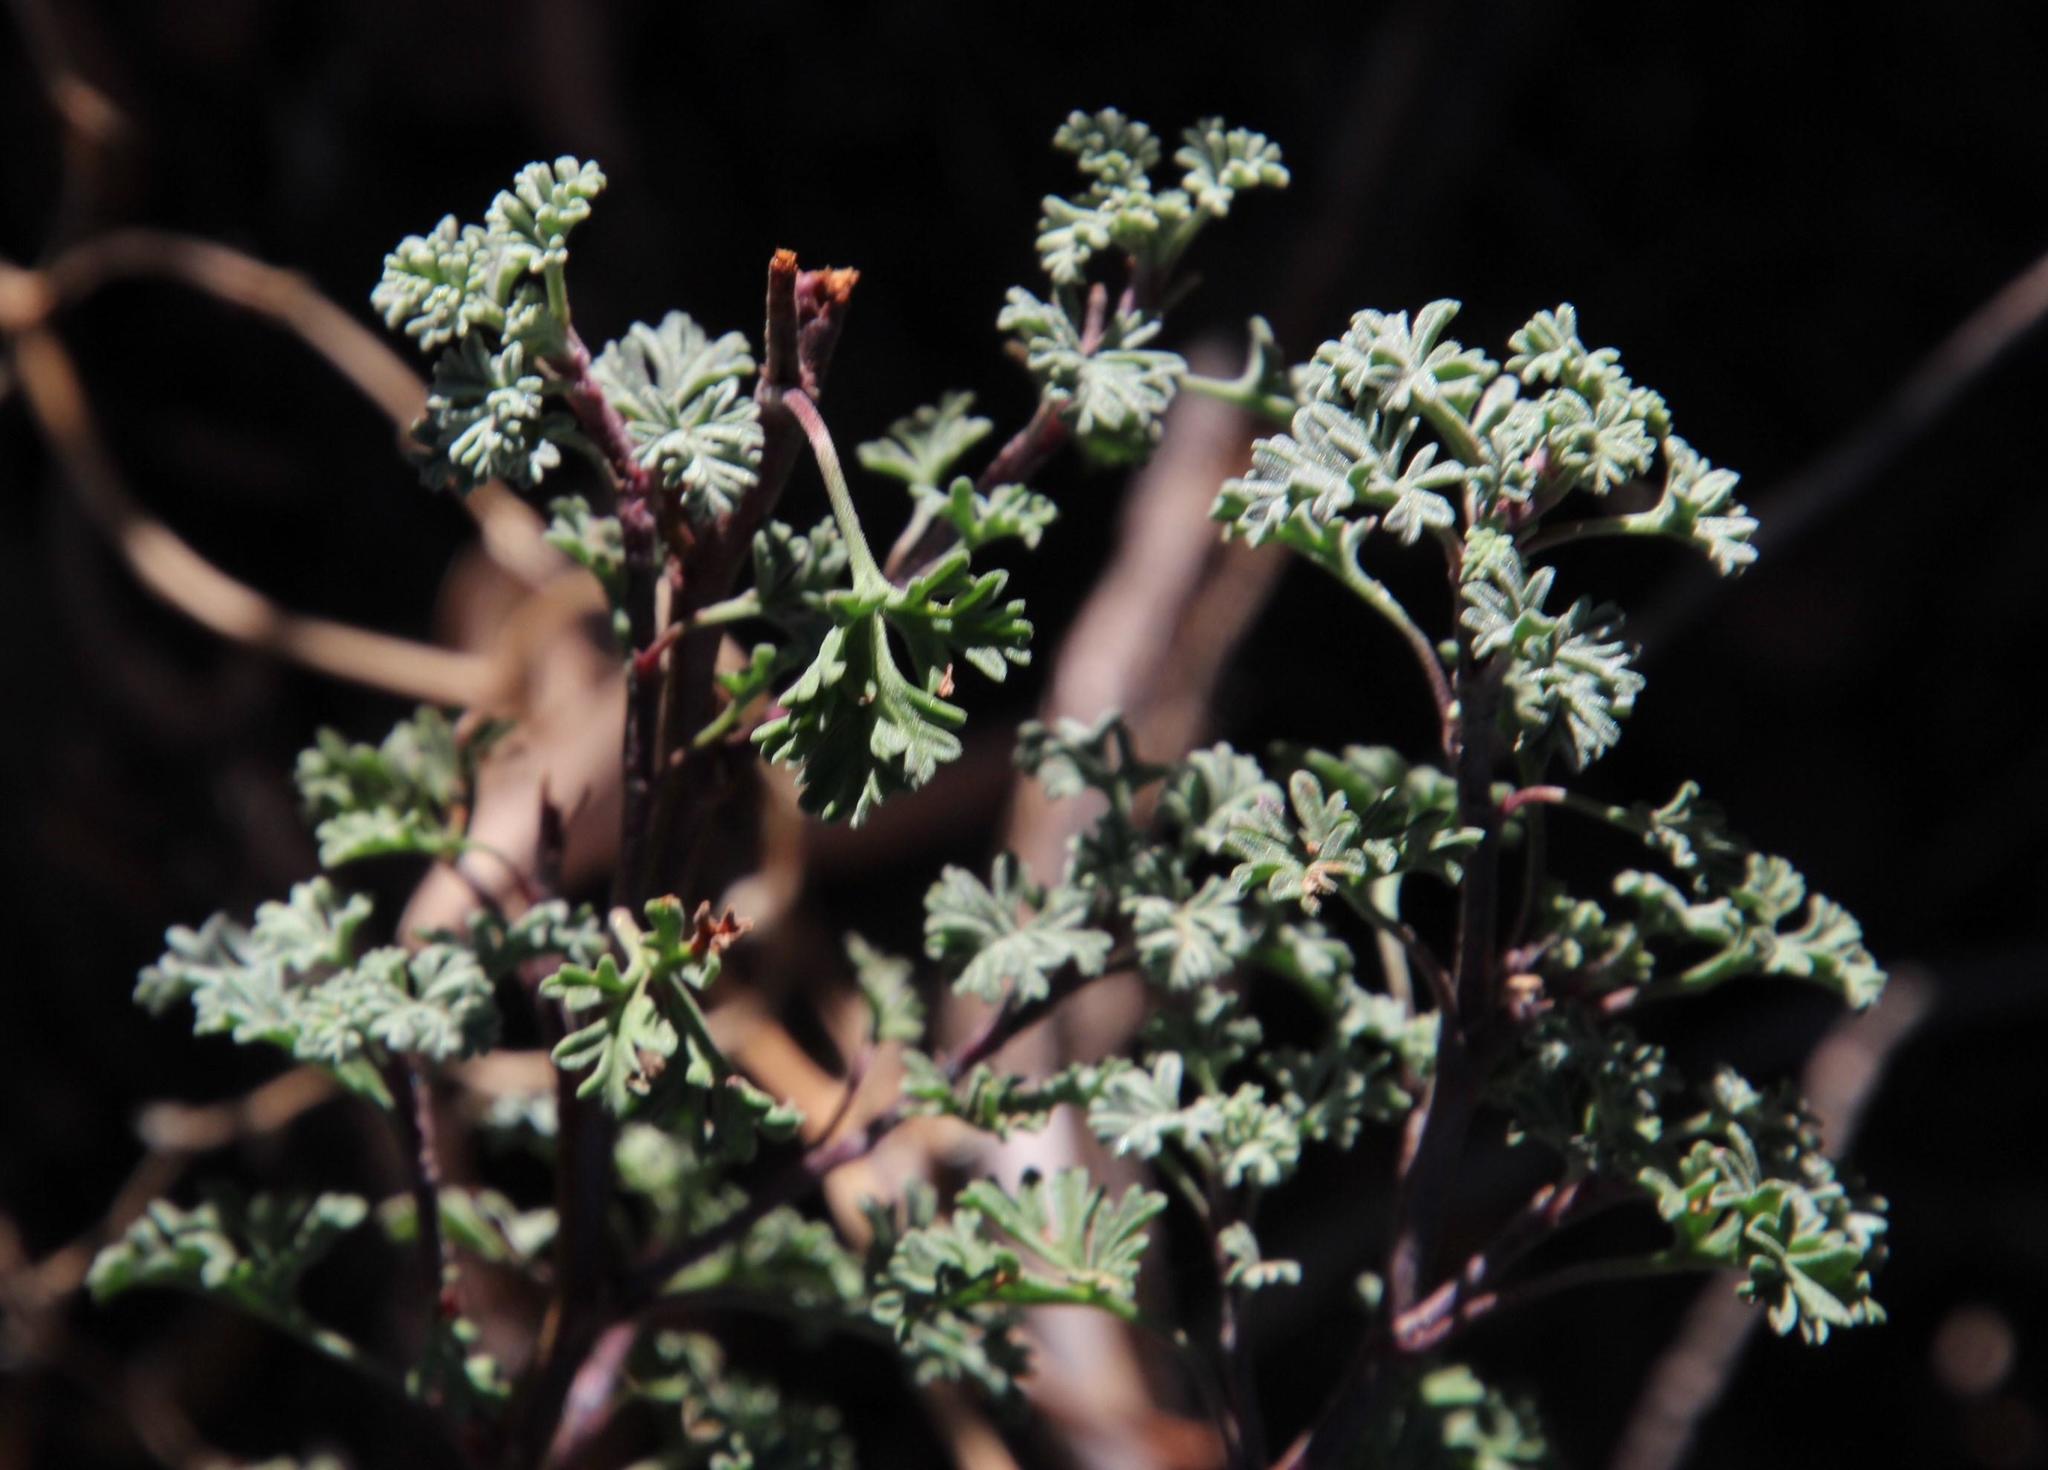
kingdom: Plantae
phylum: Tracheophyta
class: Magnoliopsida
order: Geraniales
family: Geraniaceae
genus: Pelargonium
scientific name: Pelargonium abrotanifolium
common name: Southernwood geranium
